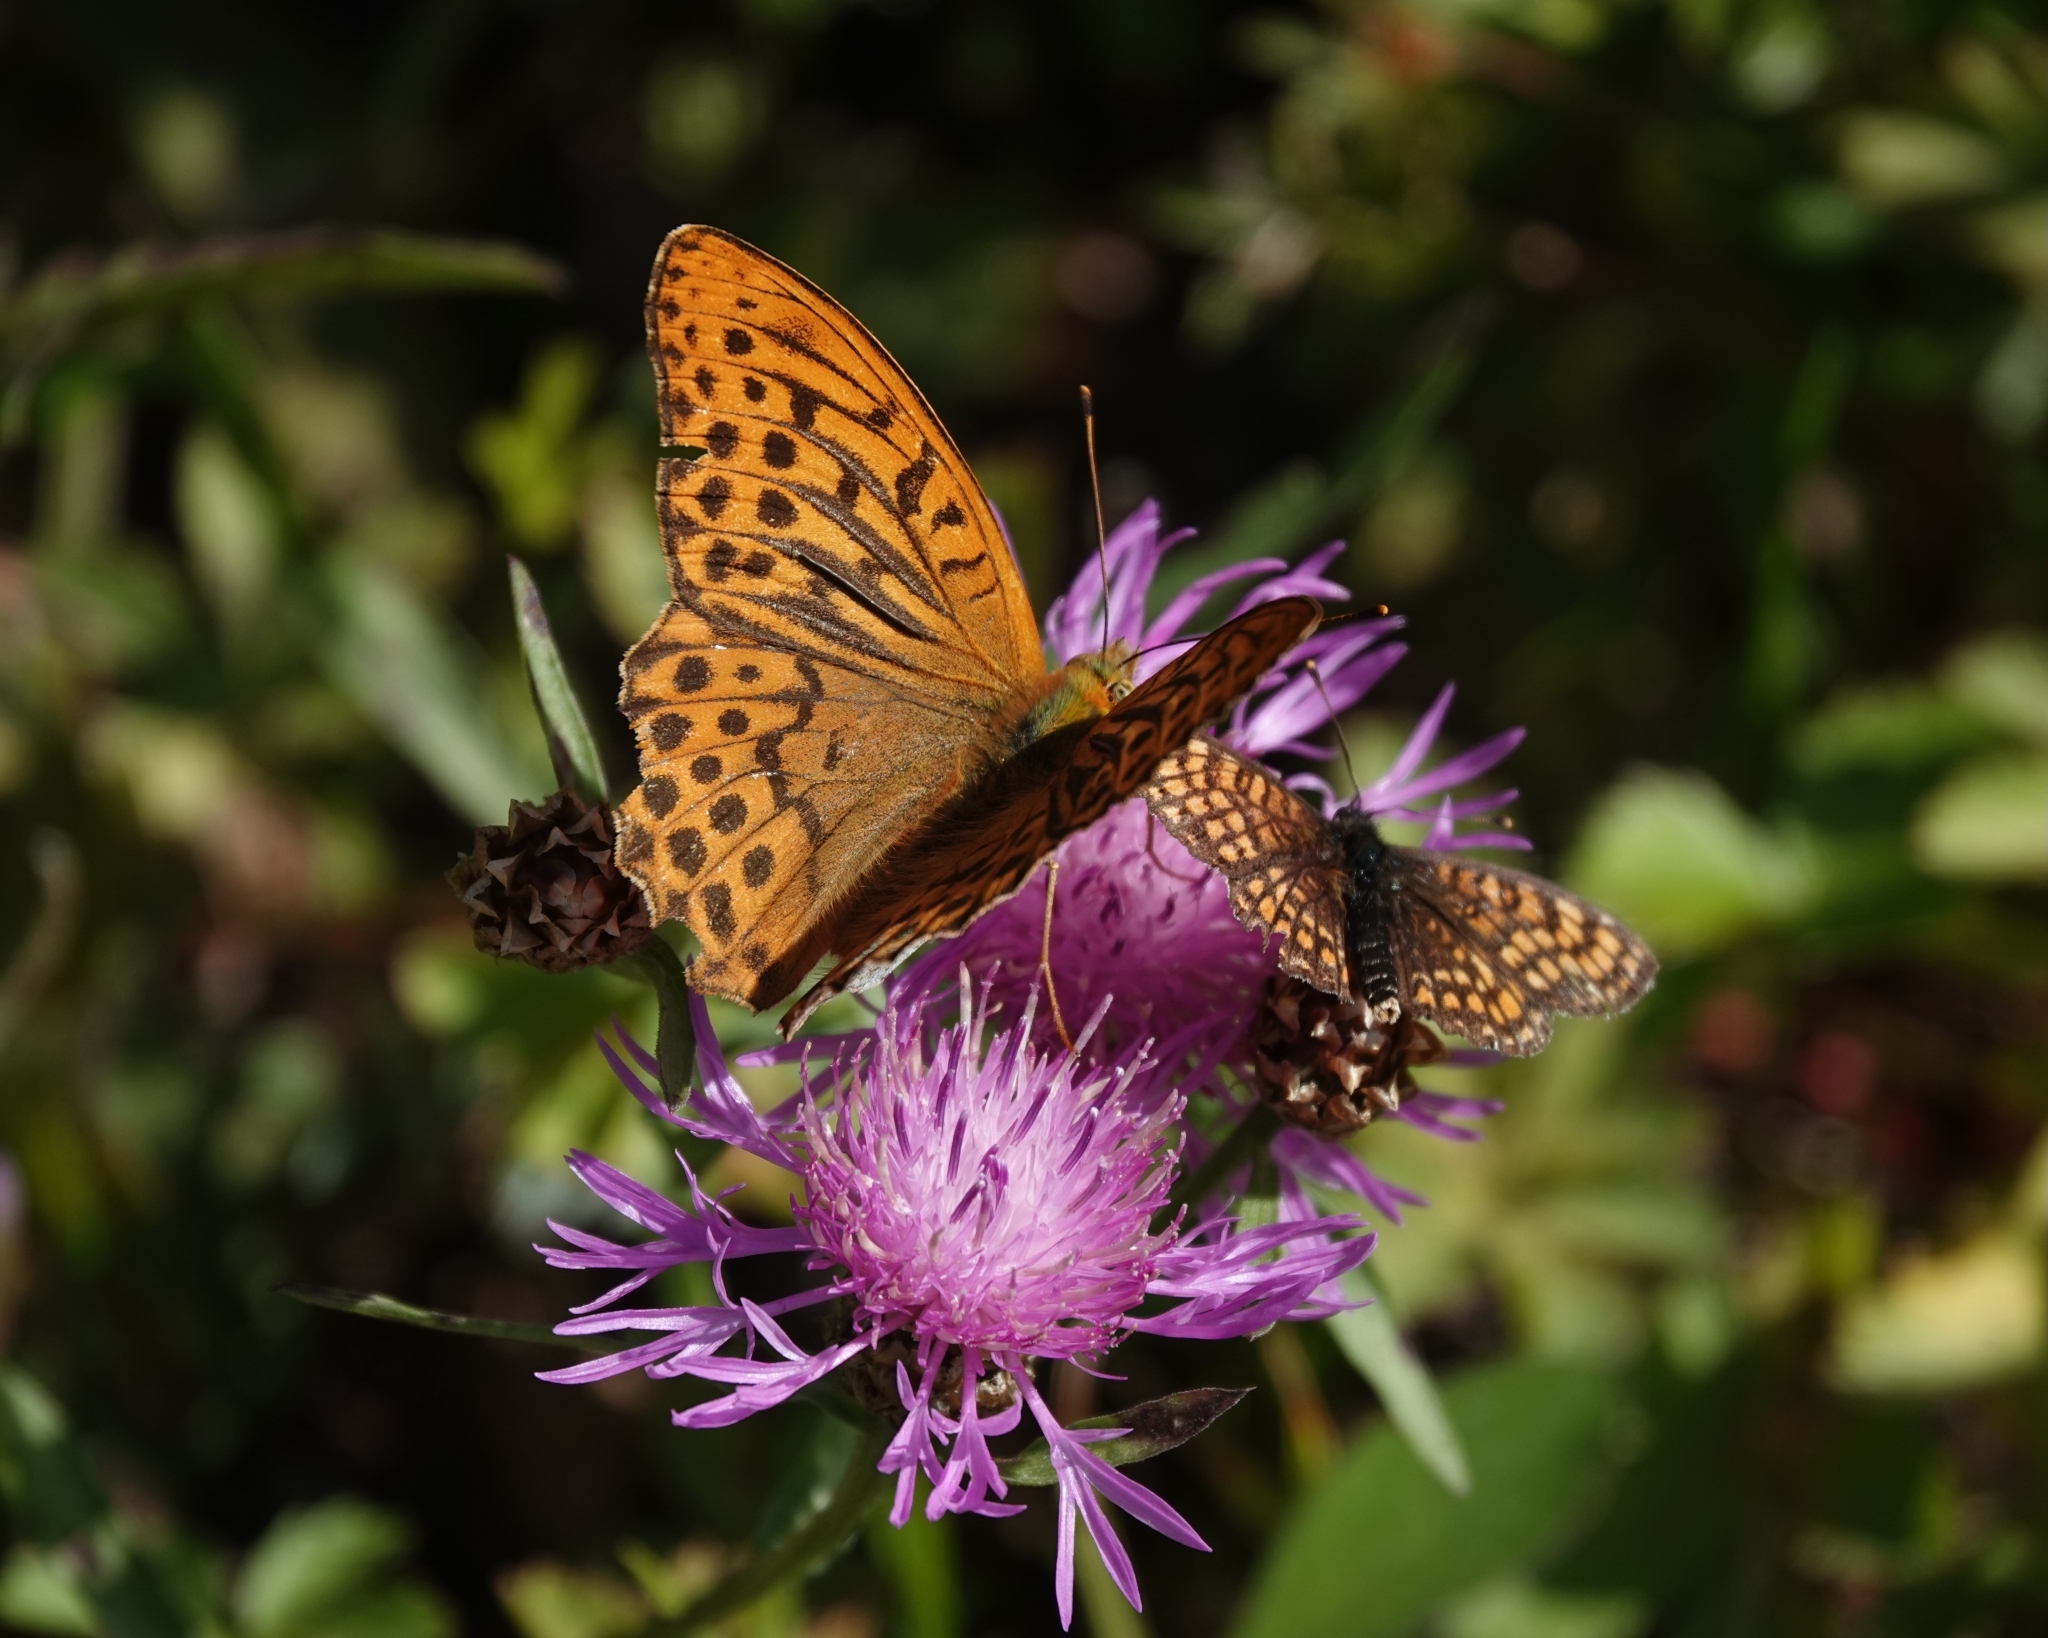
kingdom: Animalia
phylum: Arthropoda
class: Insecta
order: Lepidoptera
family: Nymphalidae
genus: Argynnis
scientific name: Argynnis paphia
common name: Silver-washed fritillary
